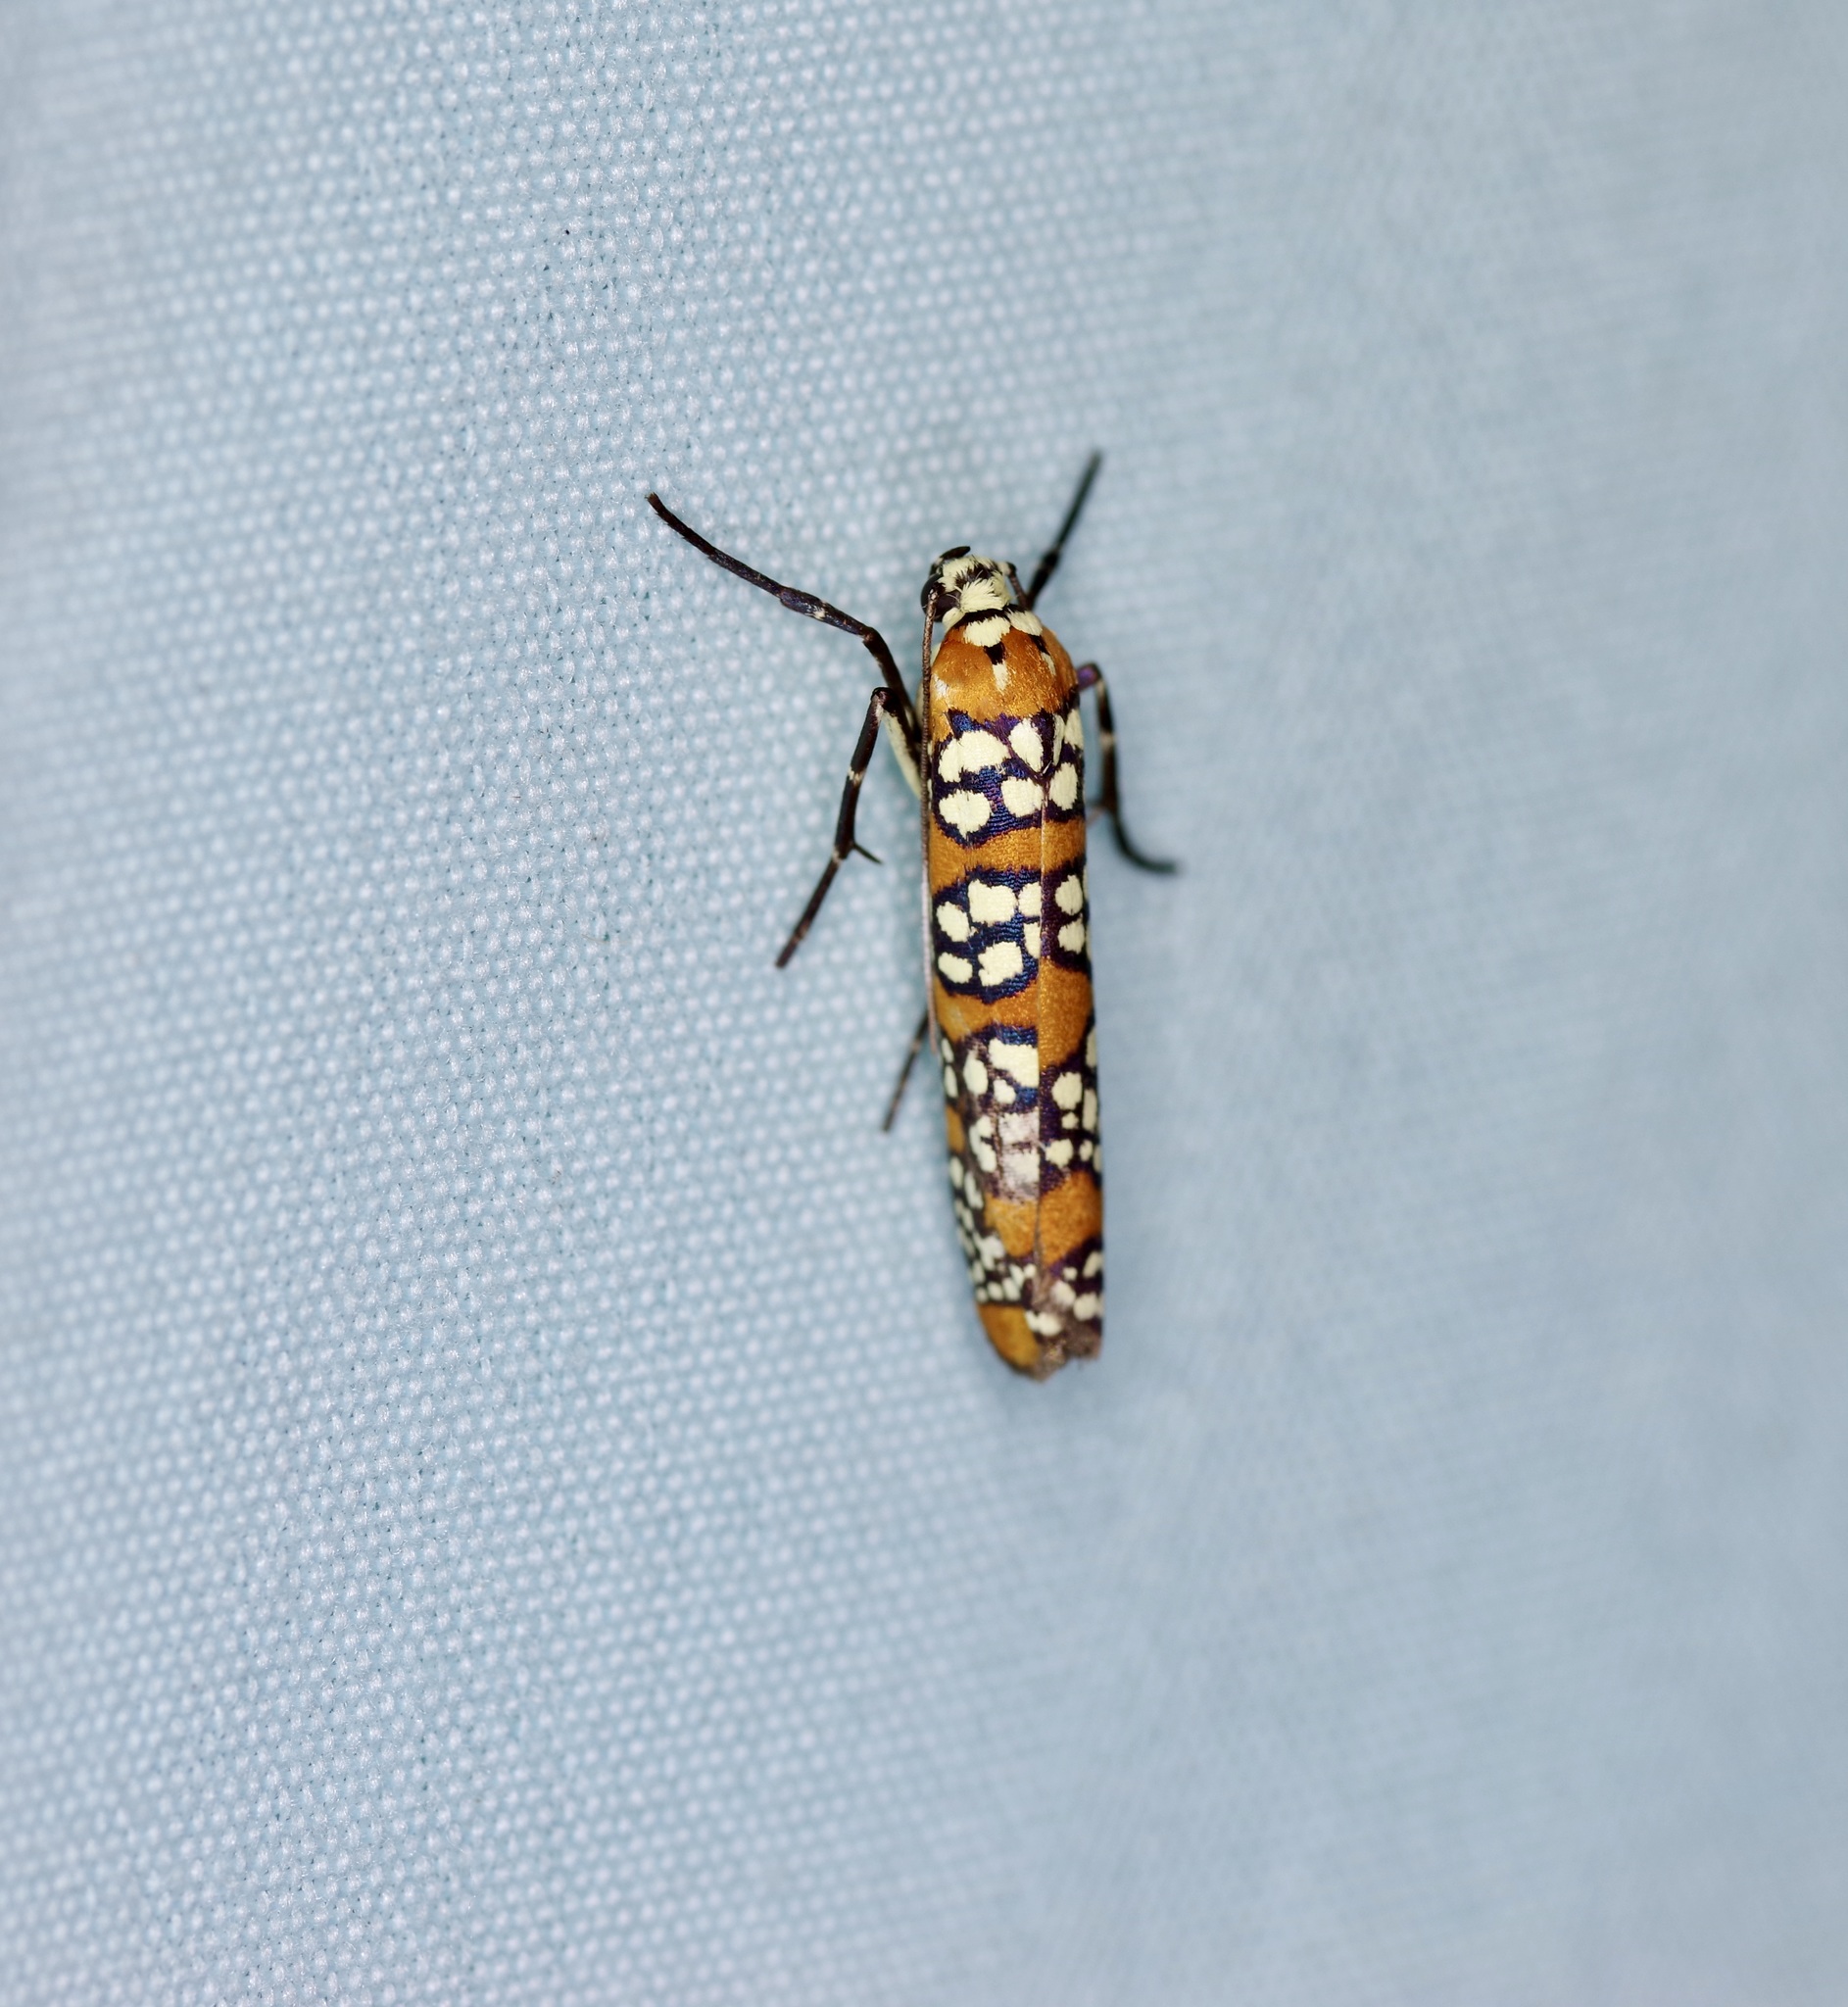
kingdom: Animalia
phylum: Arthropoda
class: Insecta
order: Lepidoptera
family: Attevidae
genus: Atteva
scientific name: Atteva punctella
